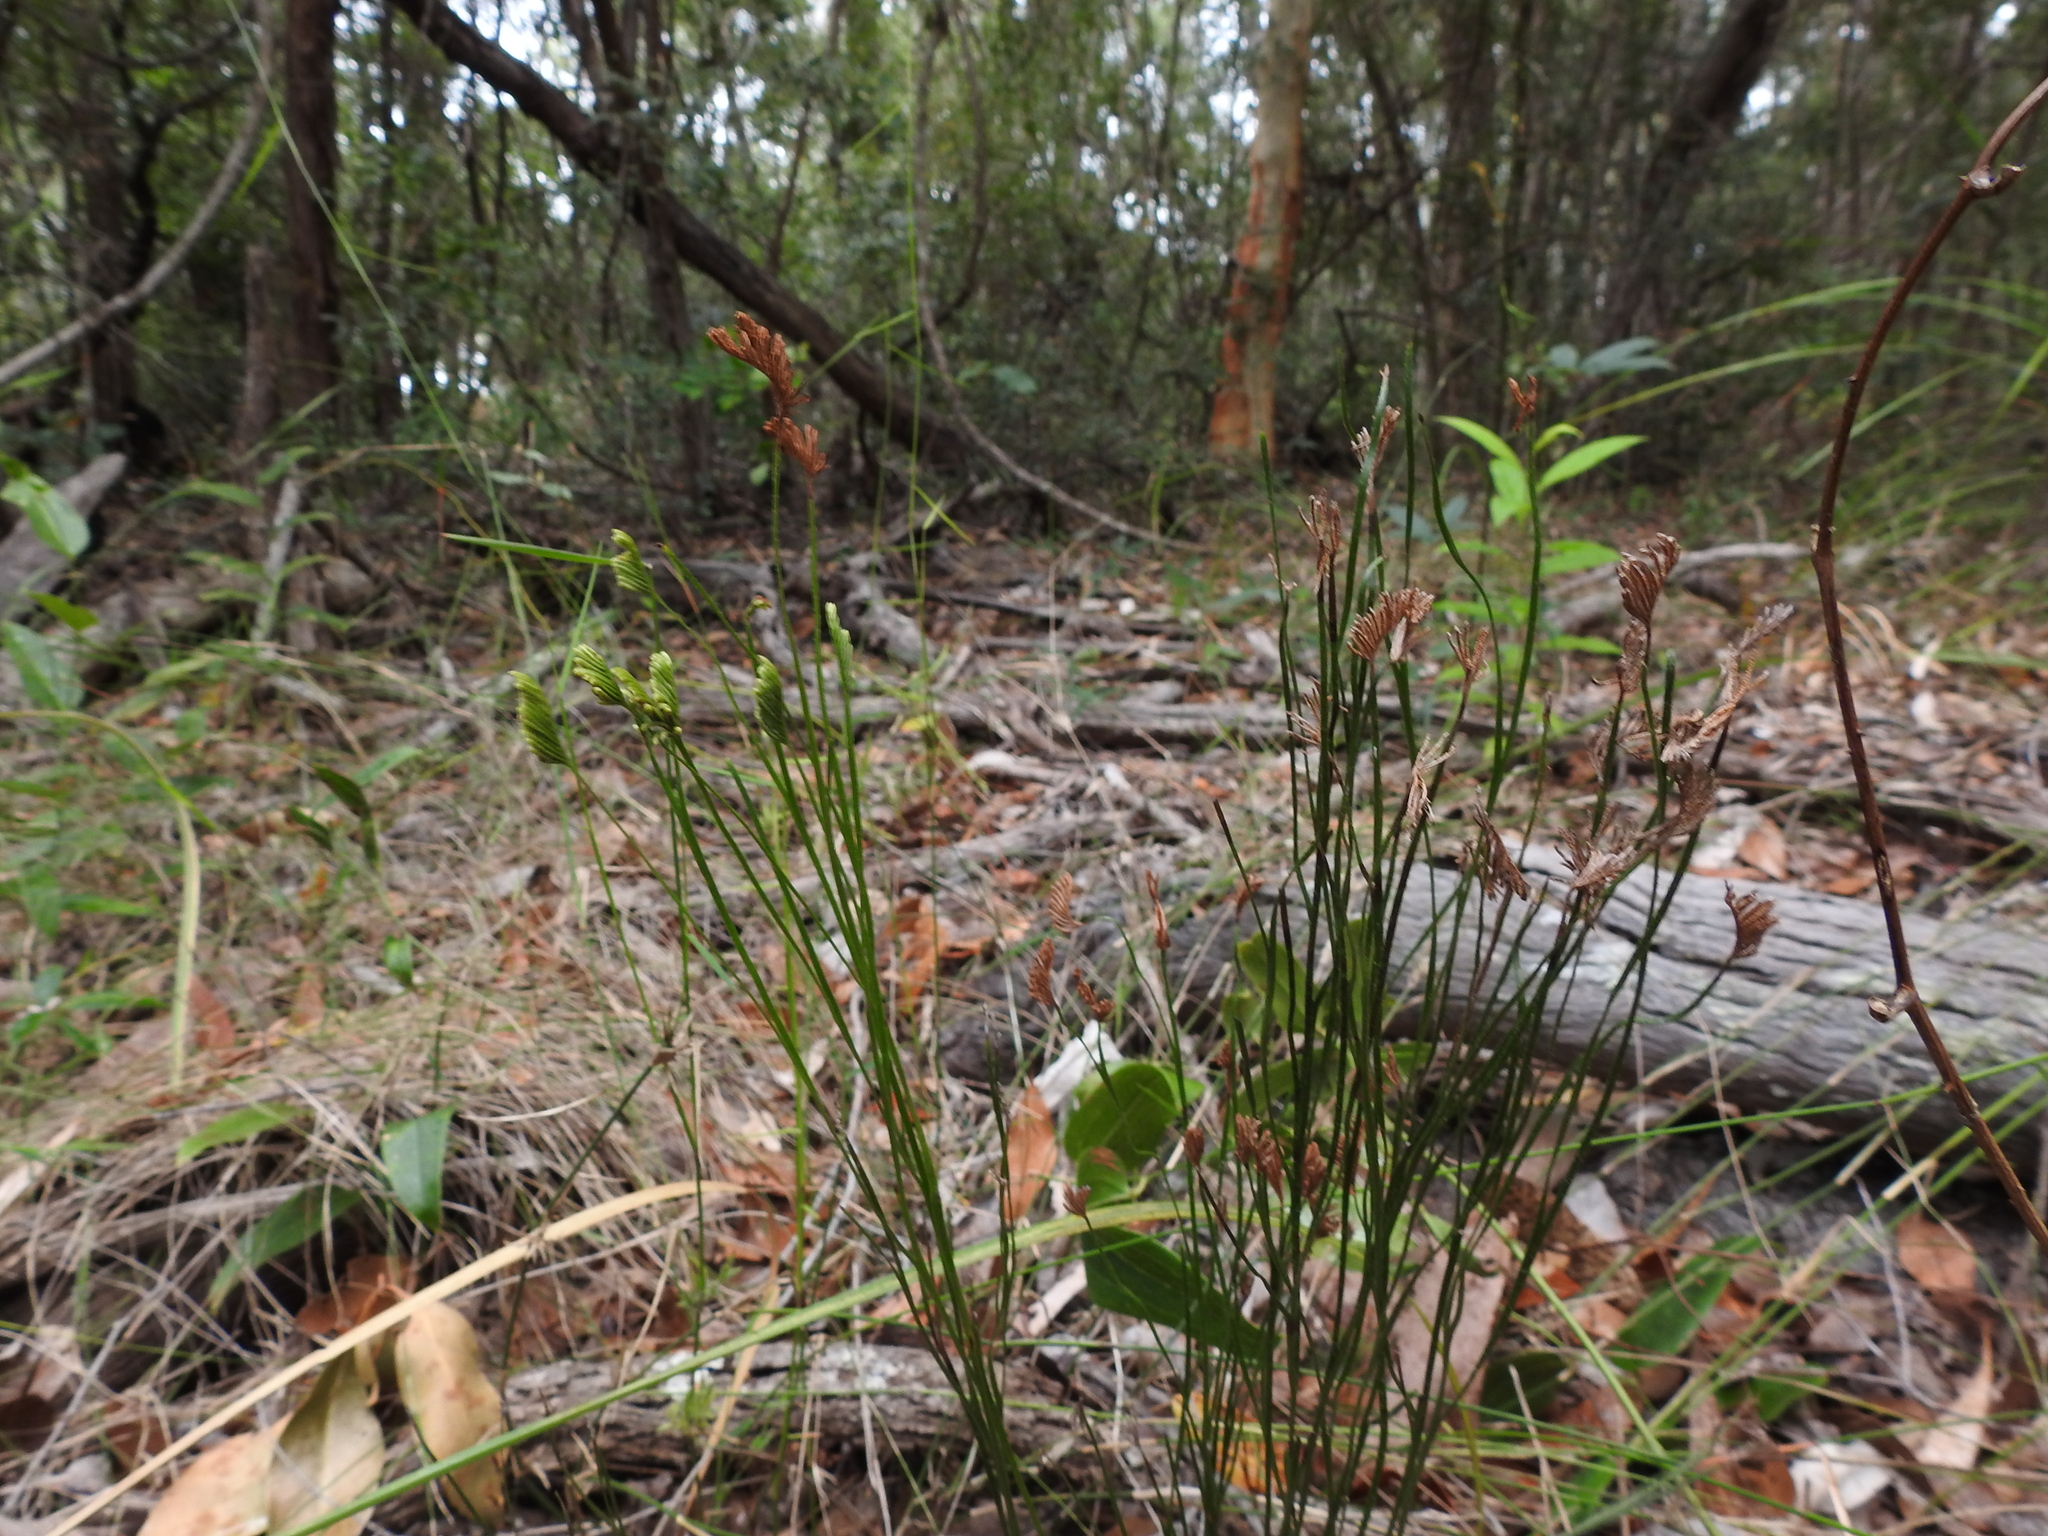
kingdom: Plantae
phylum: Tracheophyta
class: Polypodiopsida
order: Schizaeales
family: Schizaeaceae
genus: Schizaea
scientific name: Schizaea bifida
